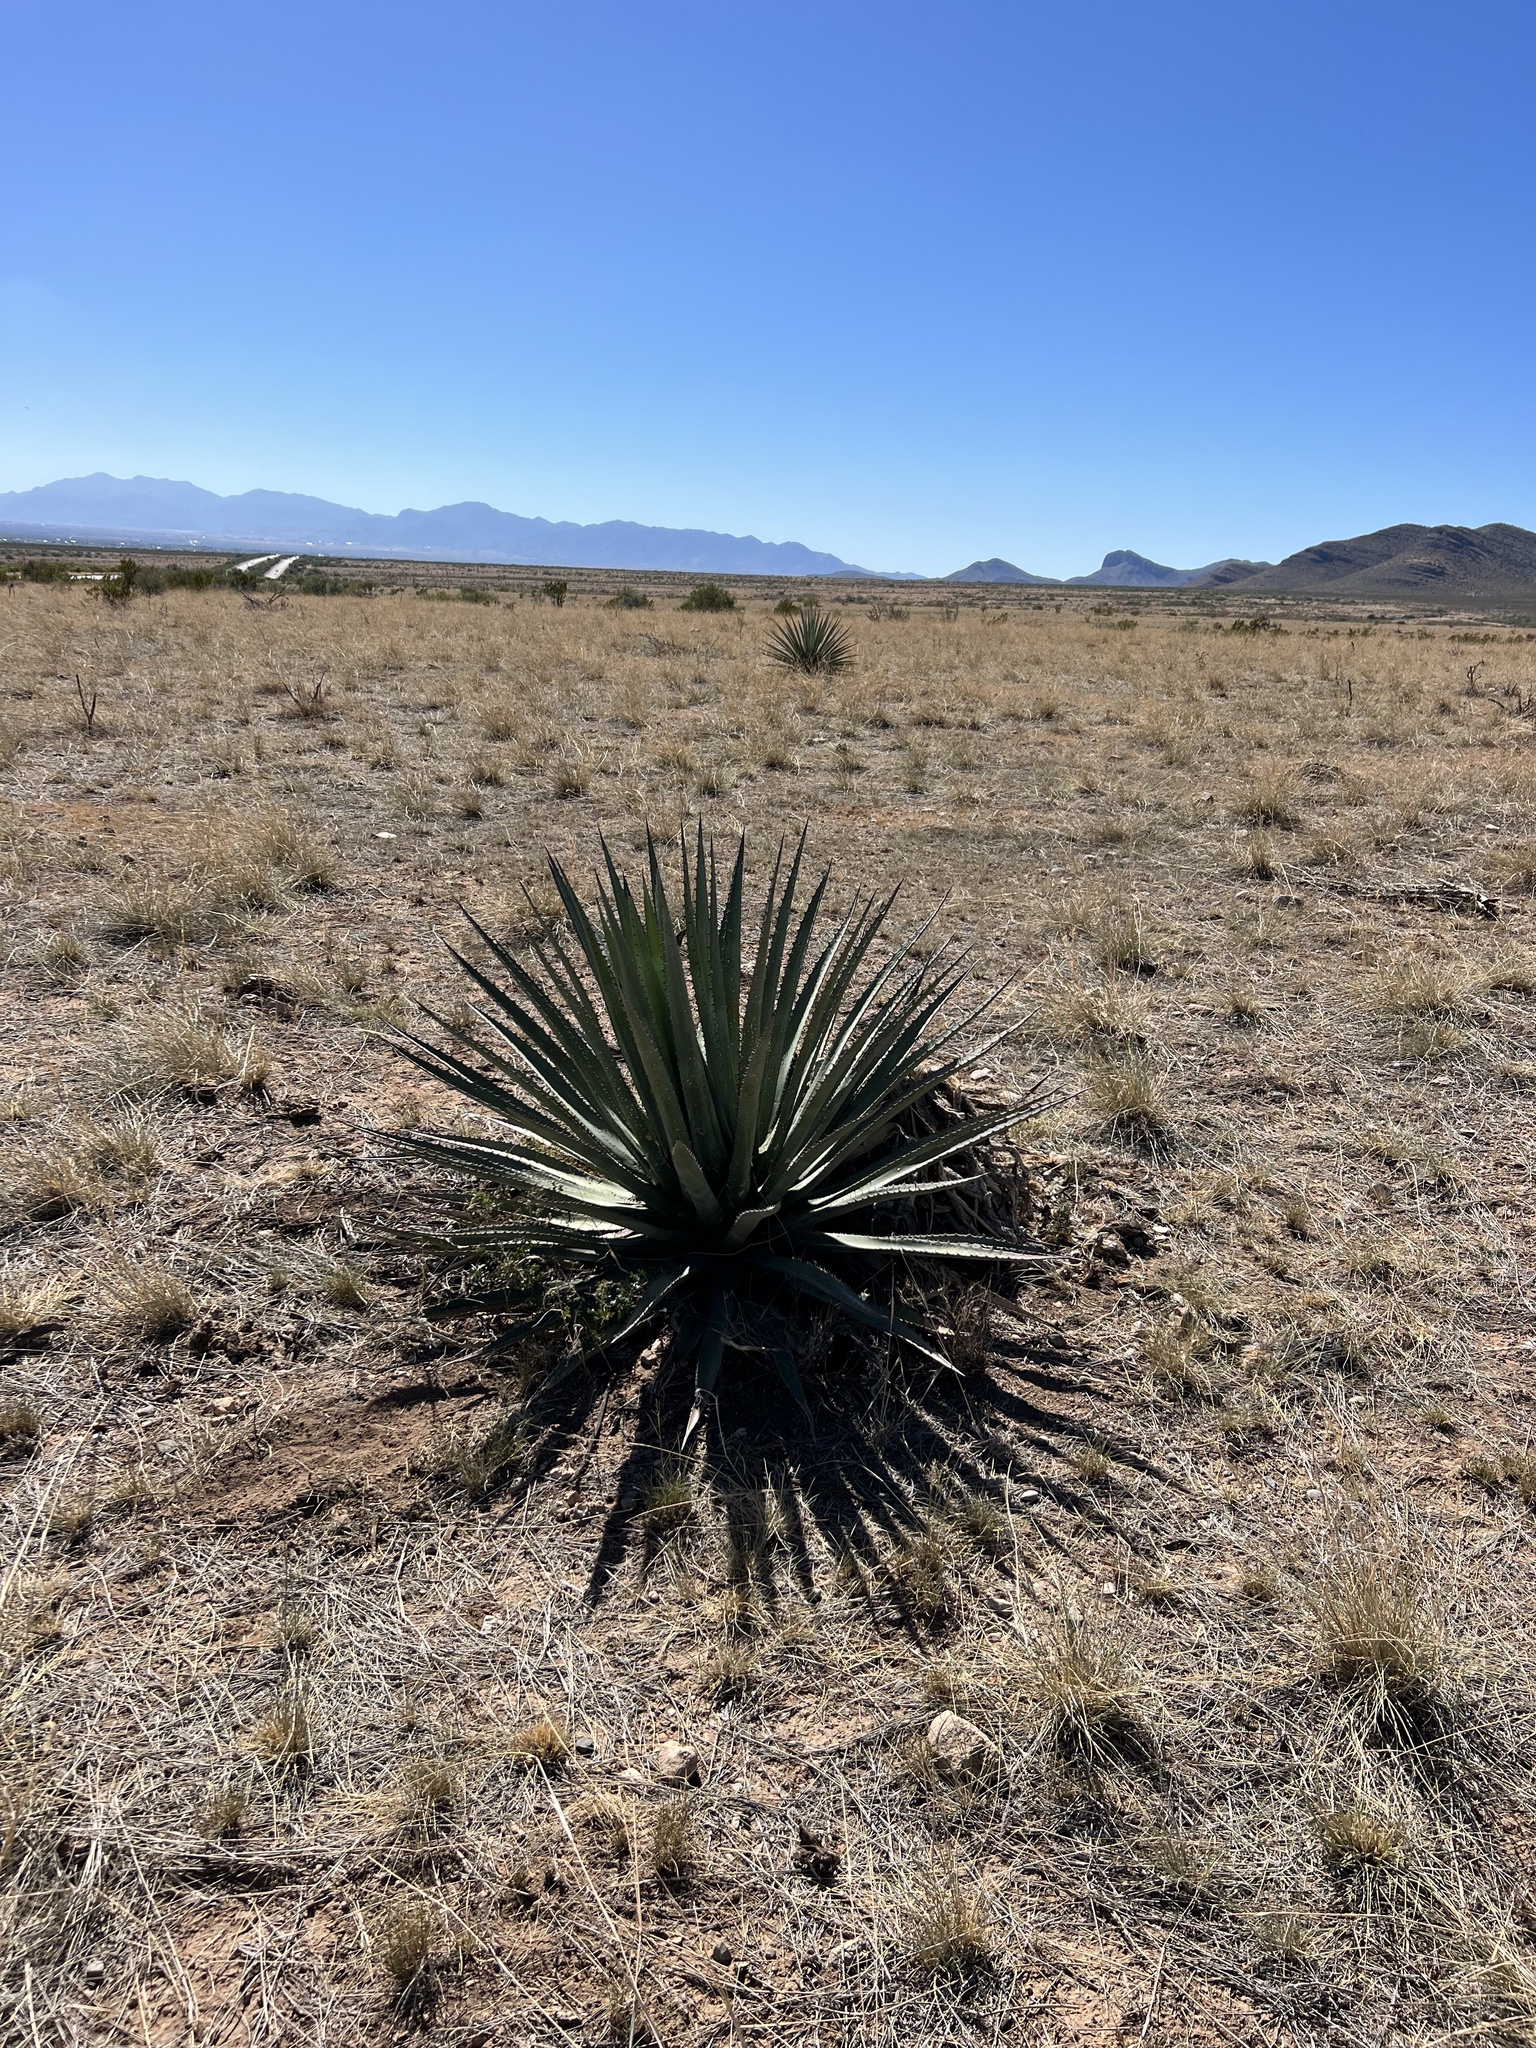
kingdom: Plantae
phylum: Tracheophyta
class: Liliopsida
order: Asparagales
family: Asparagaceae
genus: Agave
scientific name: Agave palmeri
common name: Palmer agave
